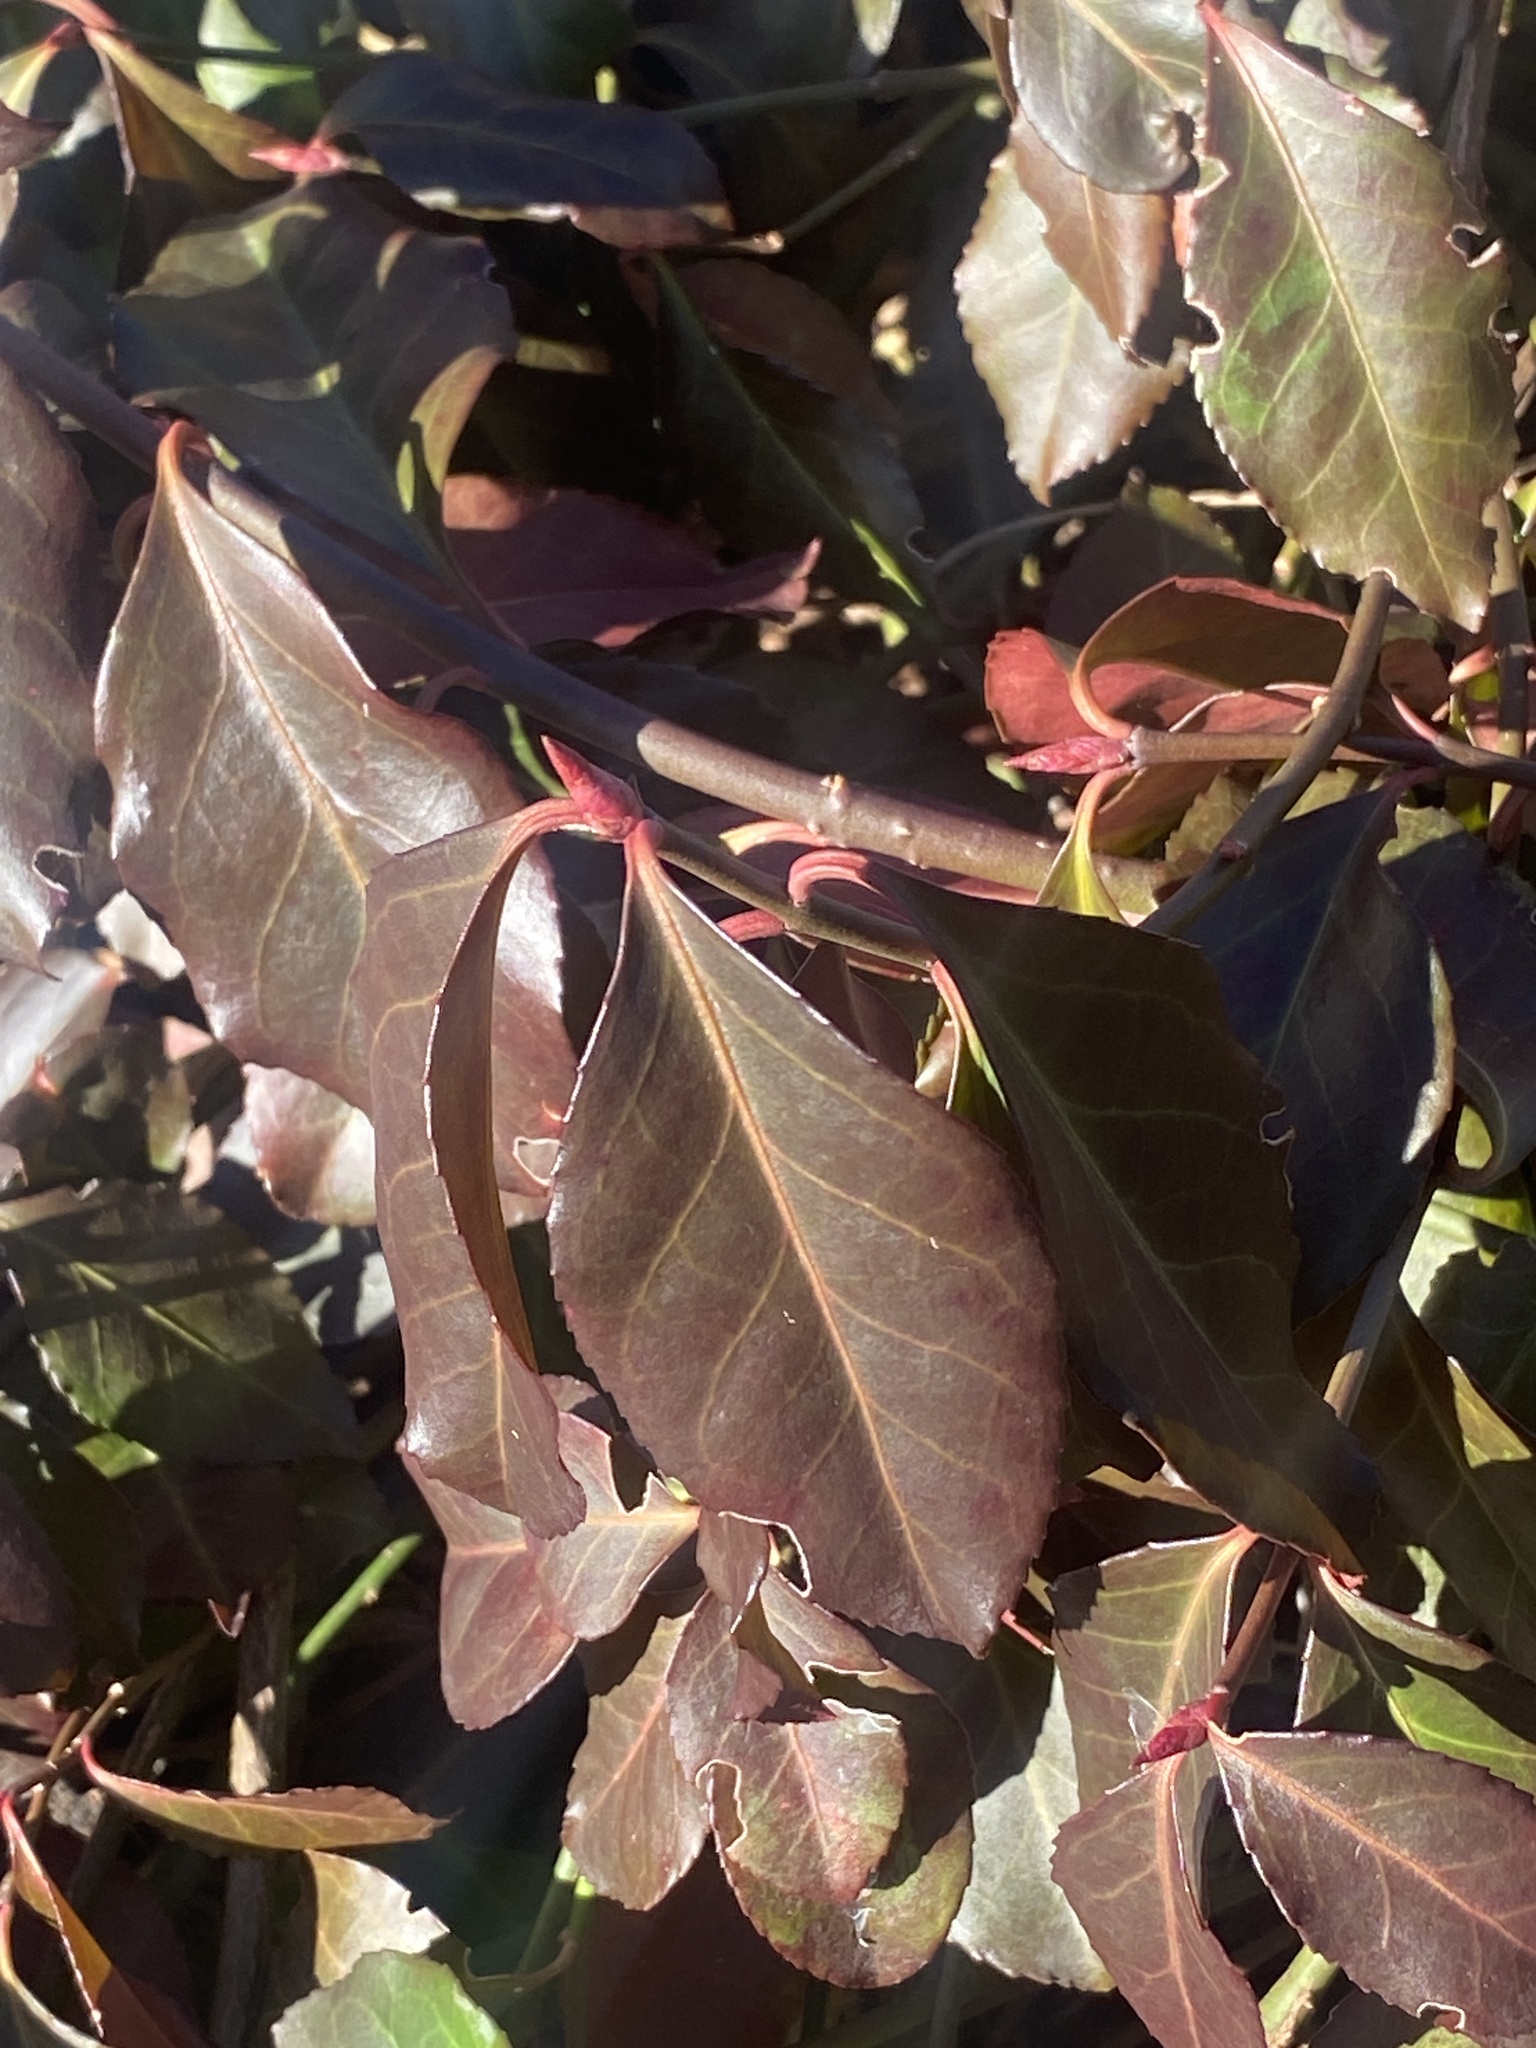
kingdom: Plantae
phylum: Tracheophyta
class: Magnoliopsida
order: Celastrales
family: Celastraceae
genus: Euonymus
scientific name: Euonymus fortunei
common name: Climbing euonymus
